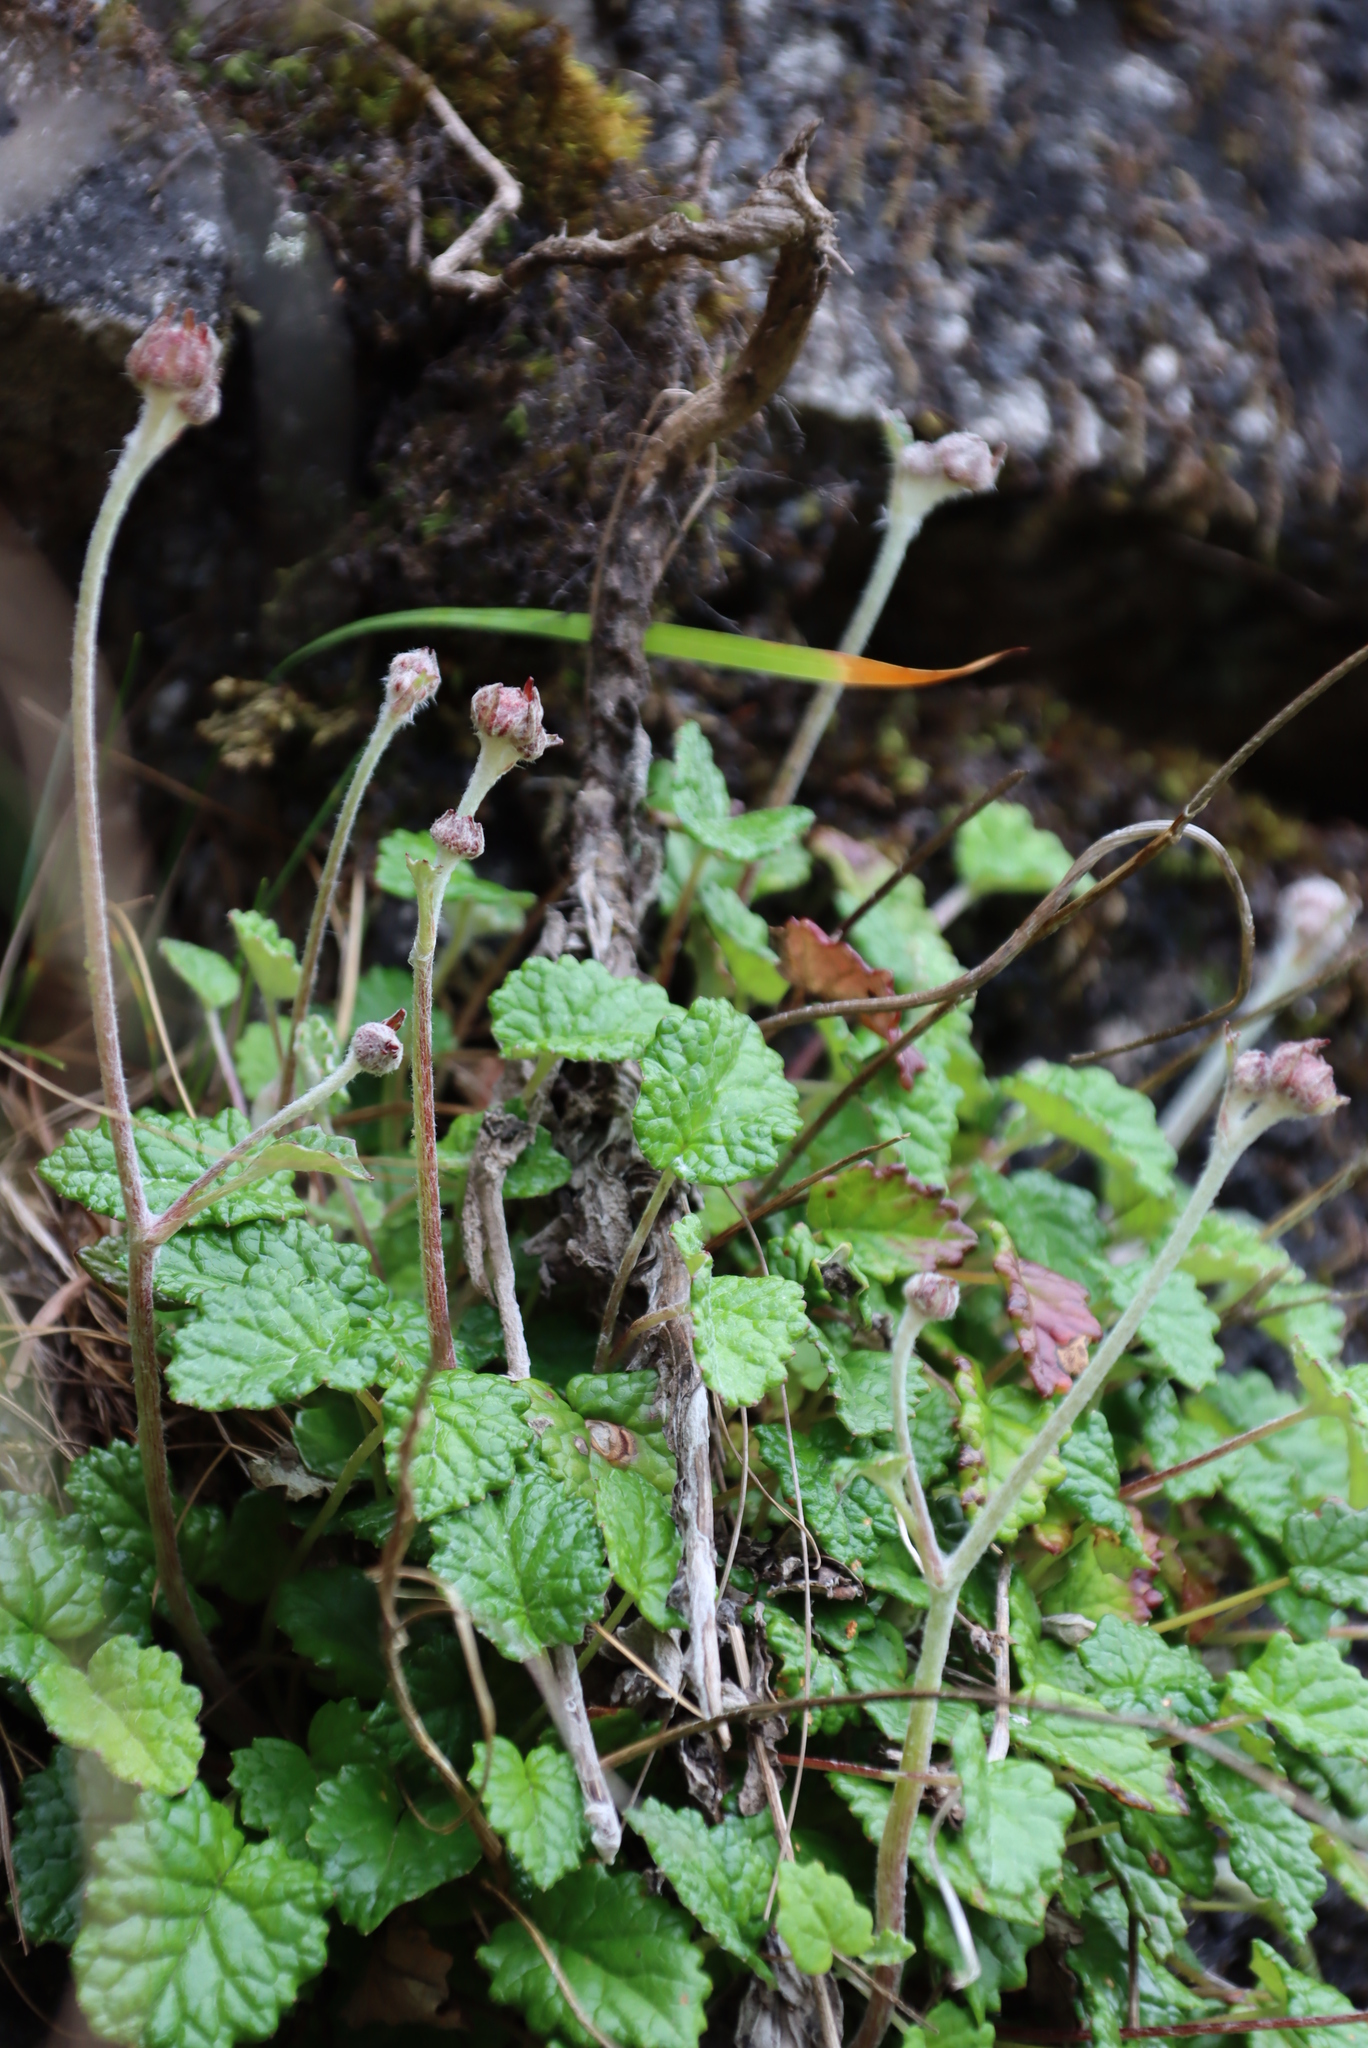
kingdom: Plantae
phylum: Tracheophyta
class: Magnoliopsida
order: Apiales
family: Apiaceae
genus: Hermas
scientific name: Hermas capitata
